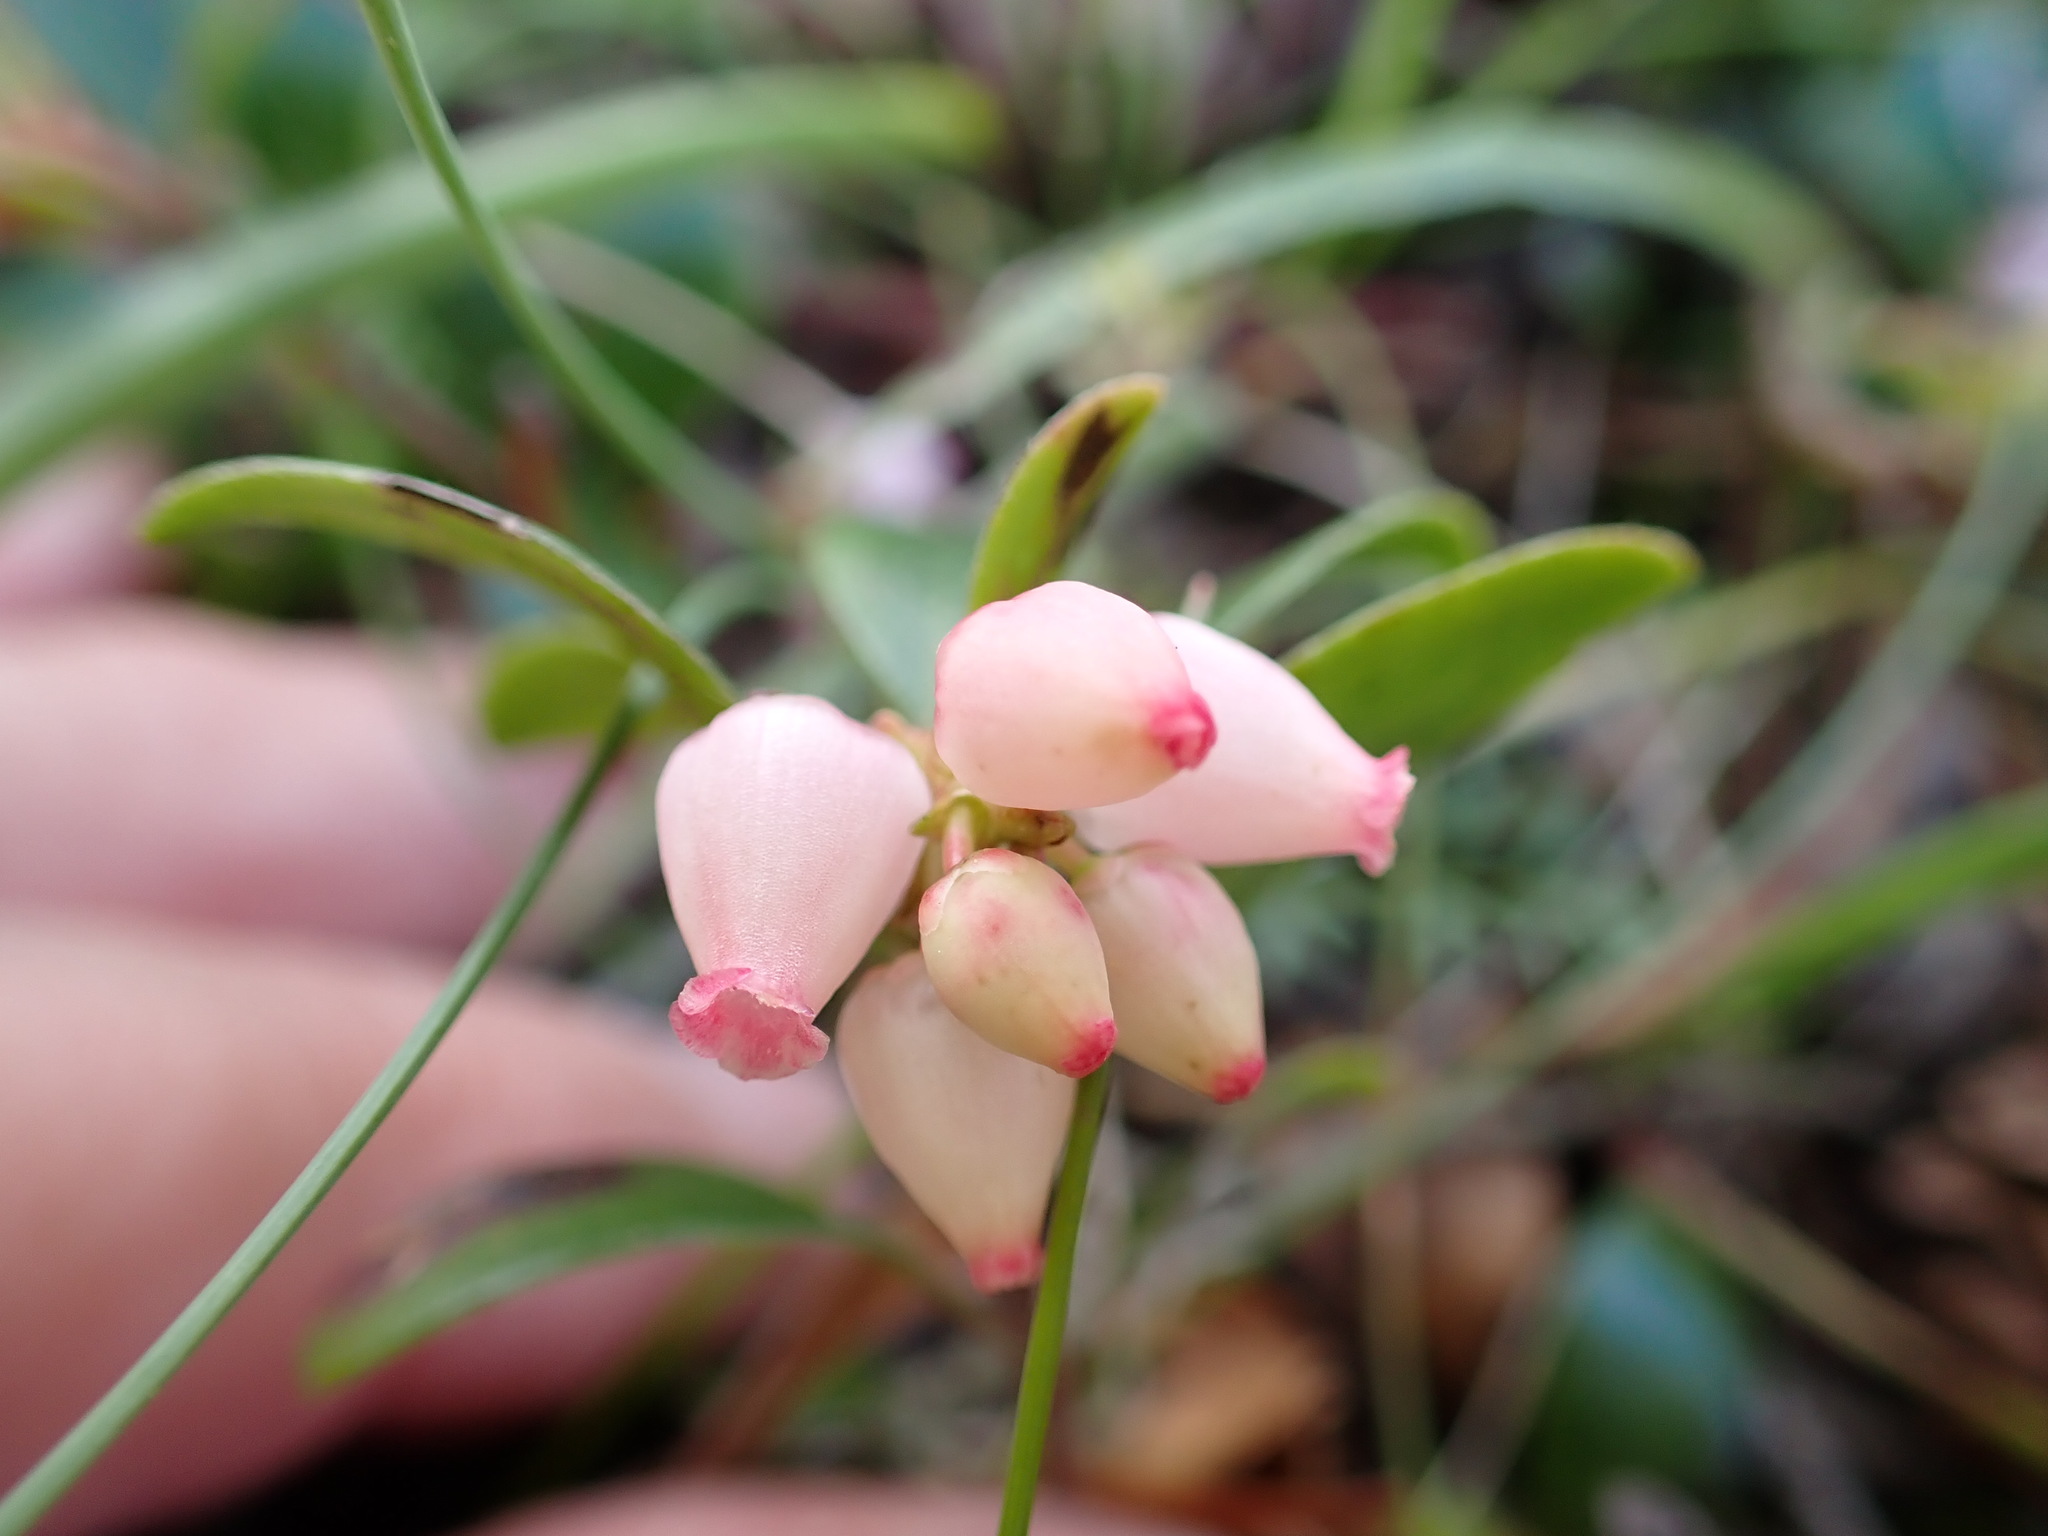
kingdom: Plantae
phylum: Tracheophyta
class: Magnoliopsida
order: Ericales
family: Ericaceae
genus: Arctostaphylos
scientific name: Arctostaphylos uva-ursi
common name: Bearberry
